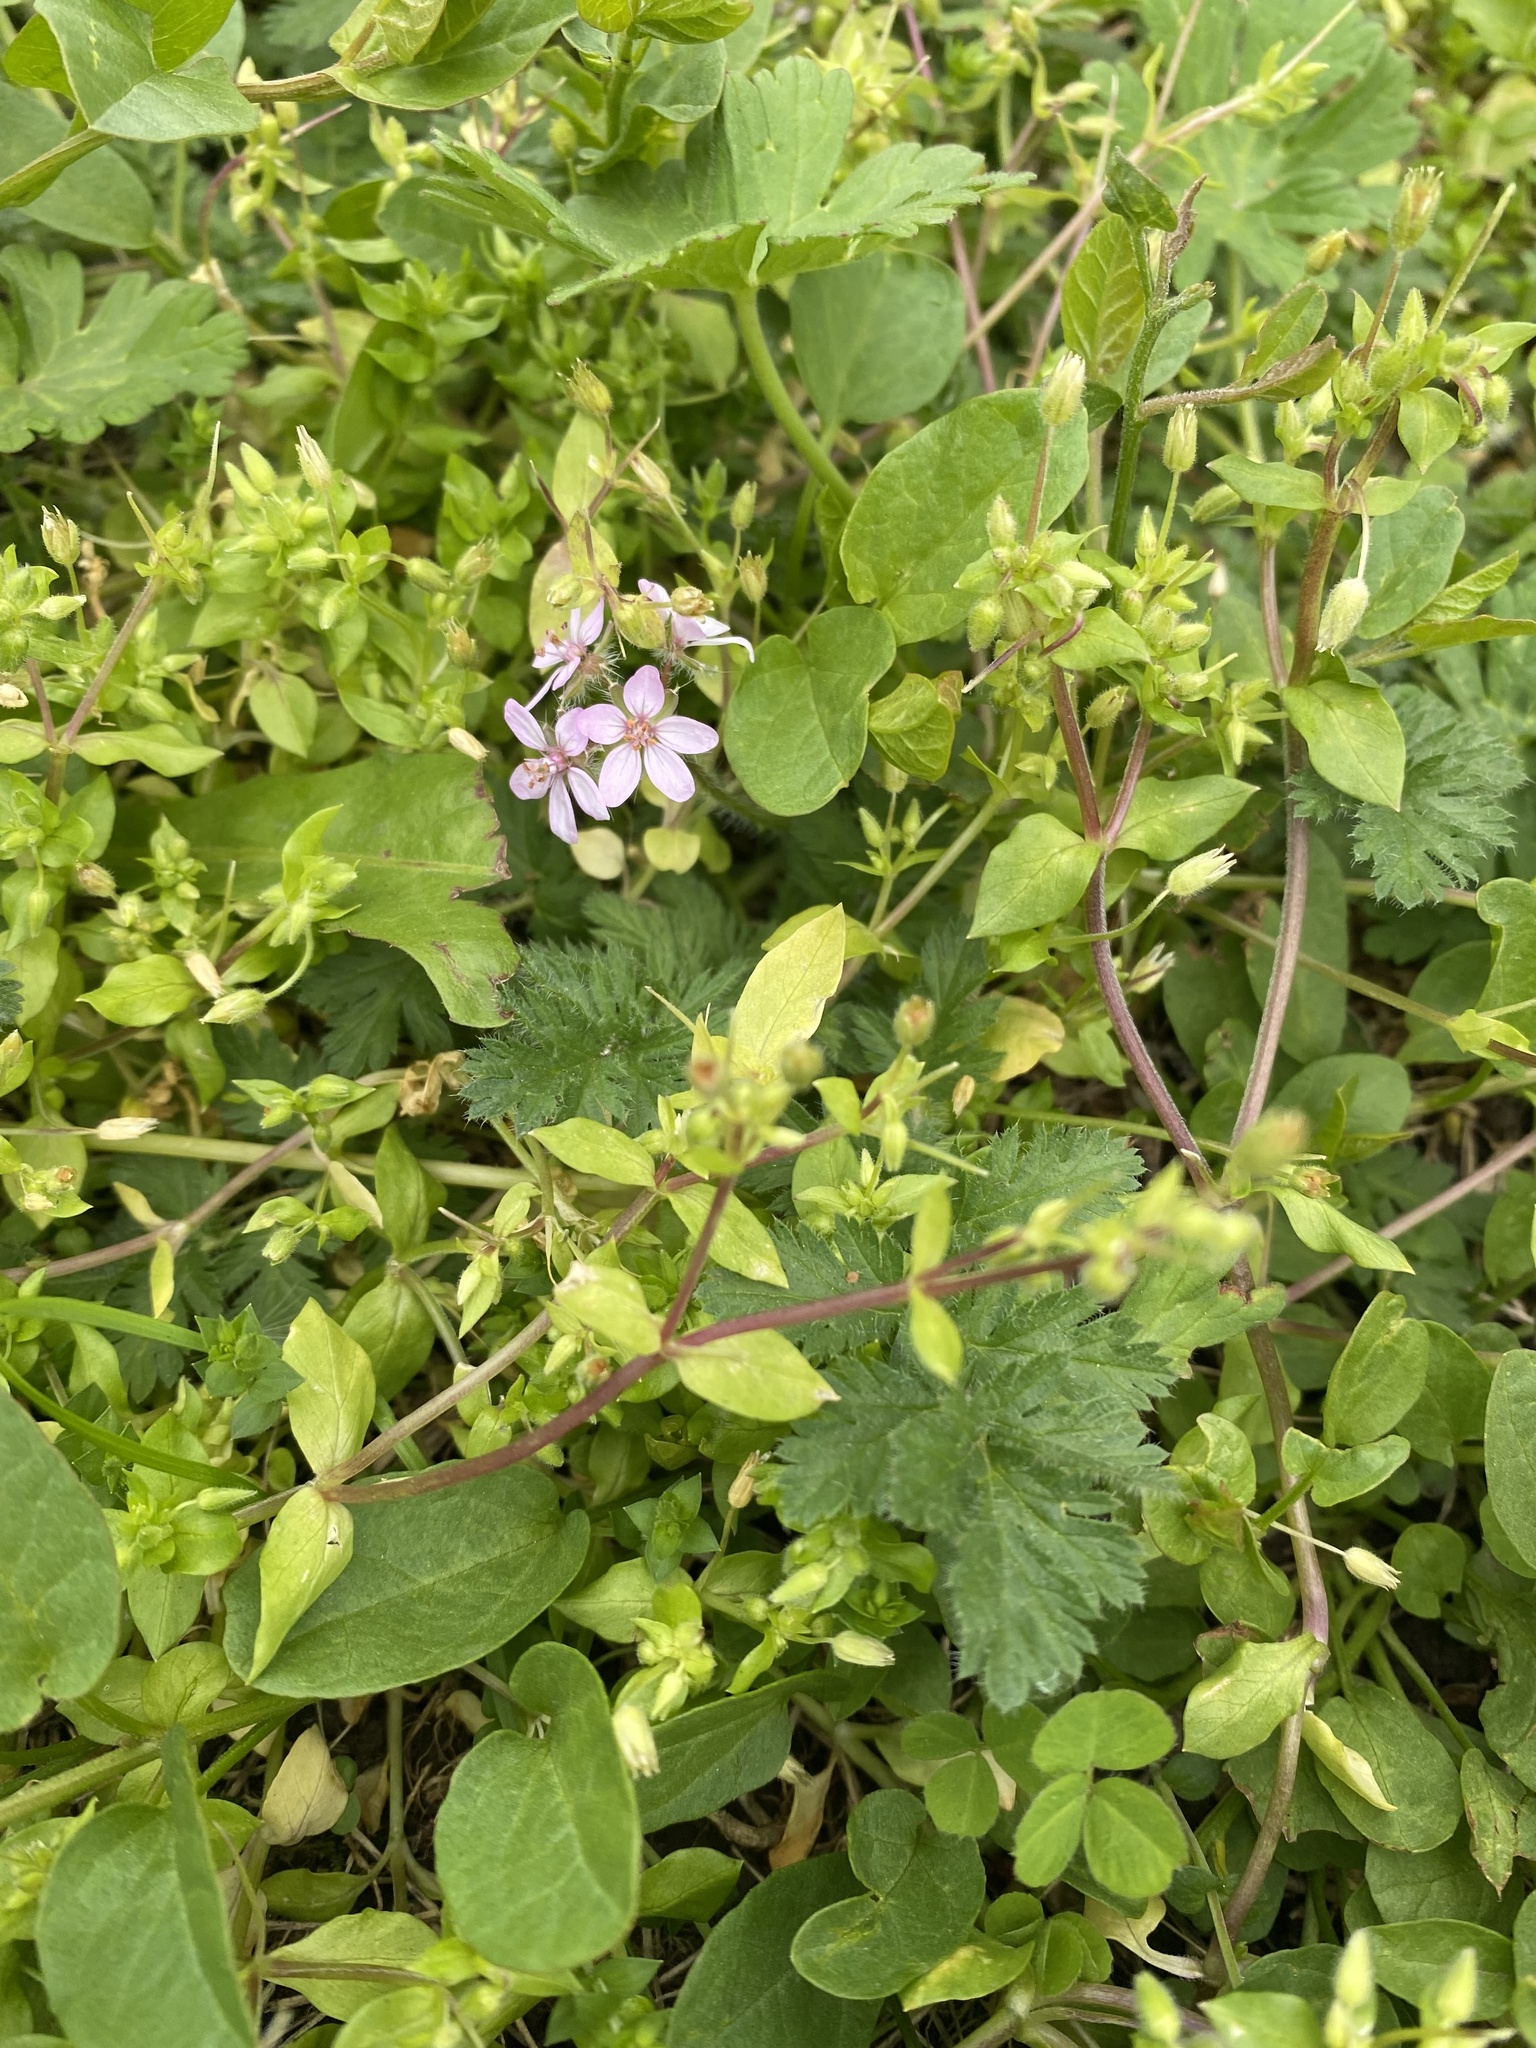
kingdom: Plantae
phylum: Tracheophyta
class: Magnoliopsida
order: Geraniales
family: Geraniaceae
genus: Erodium
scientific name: Erodium cicutarium
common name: Common stork's-bill
